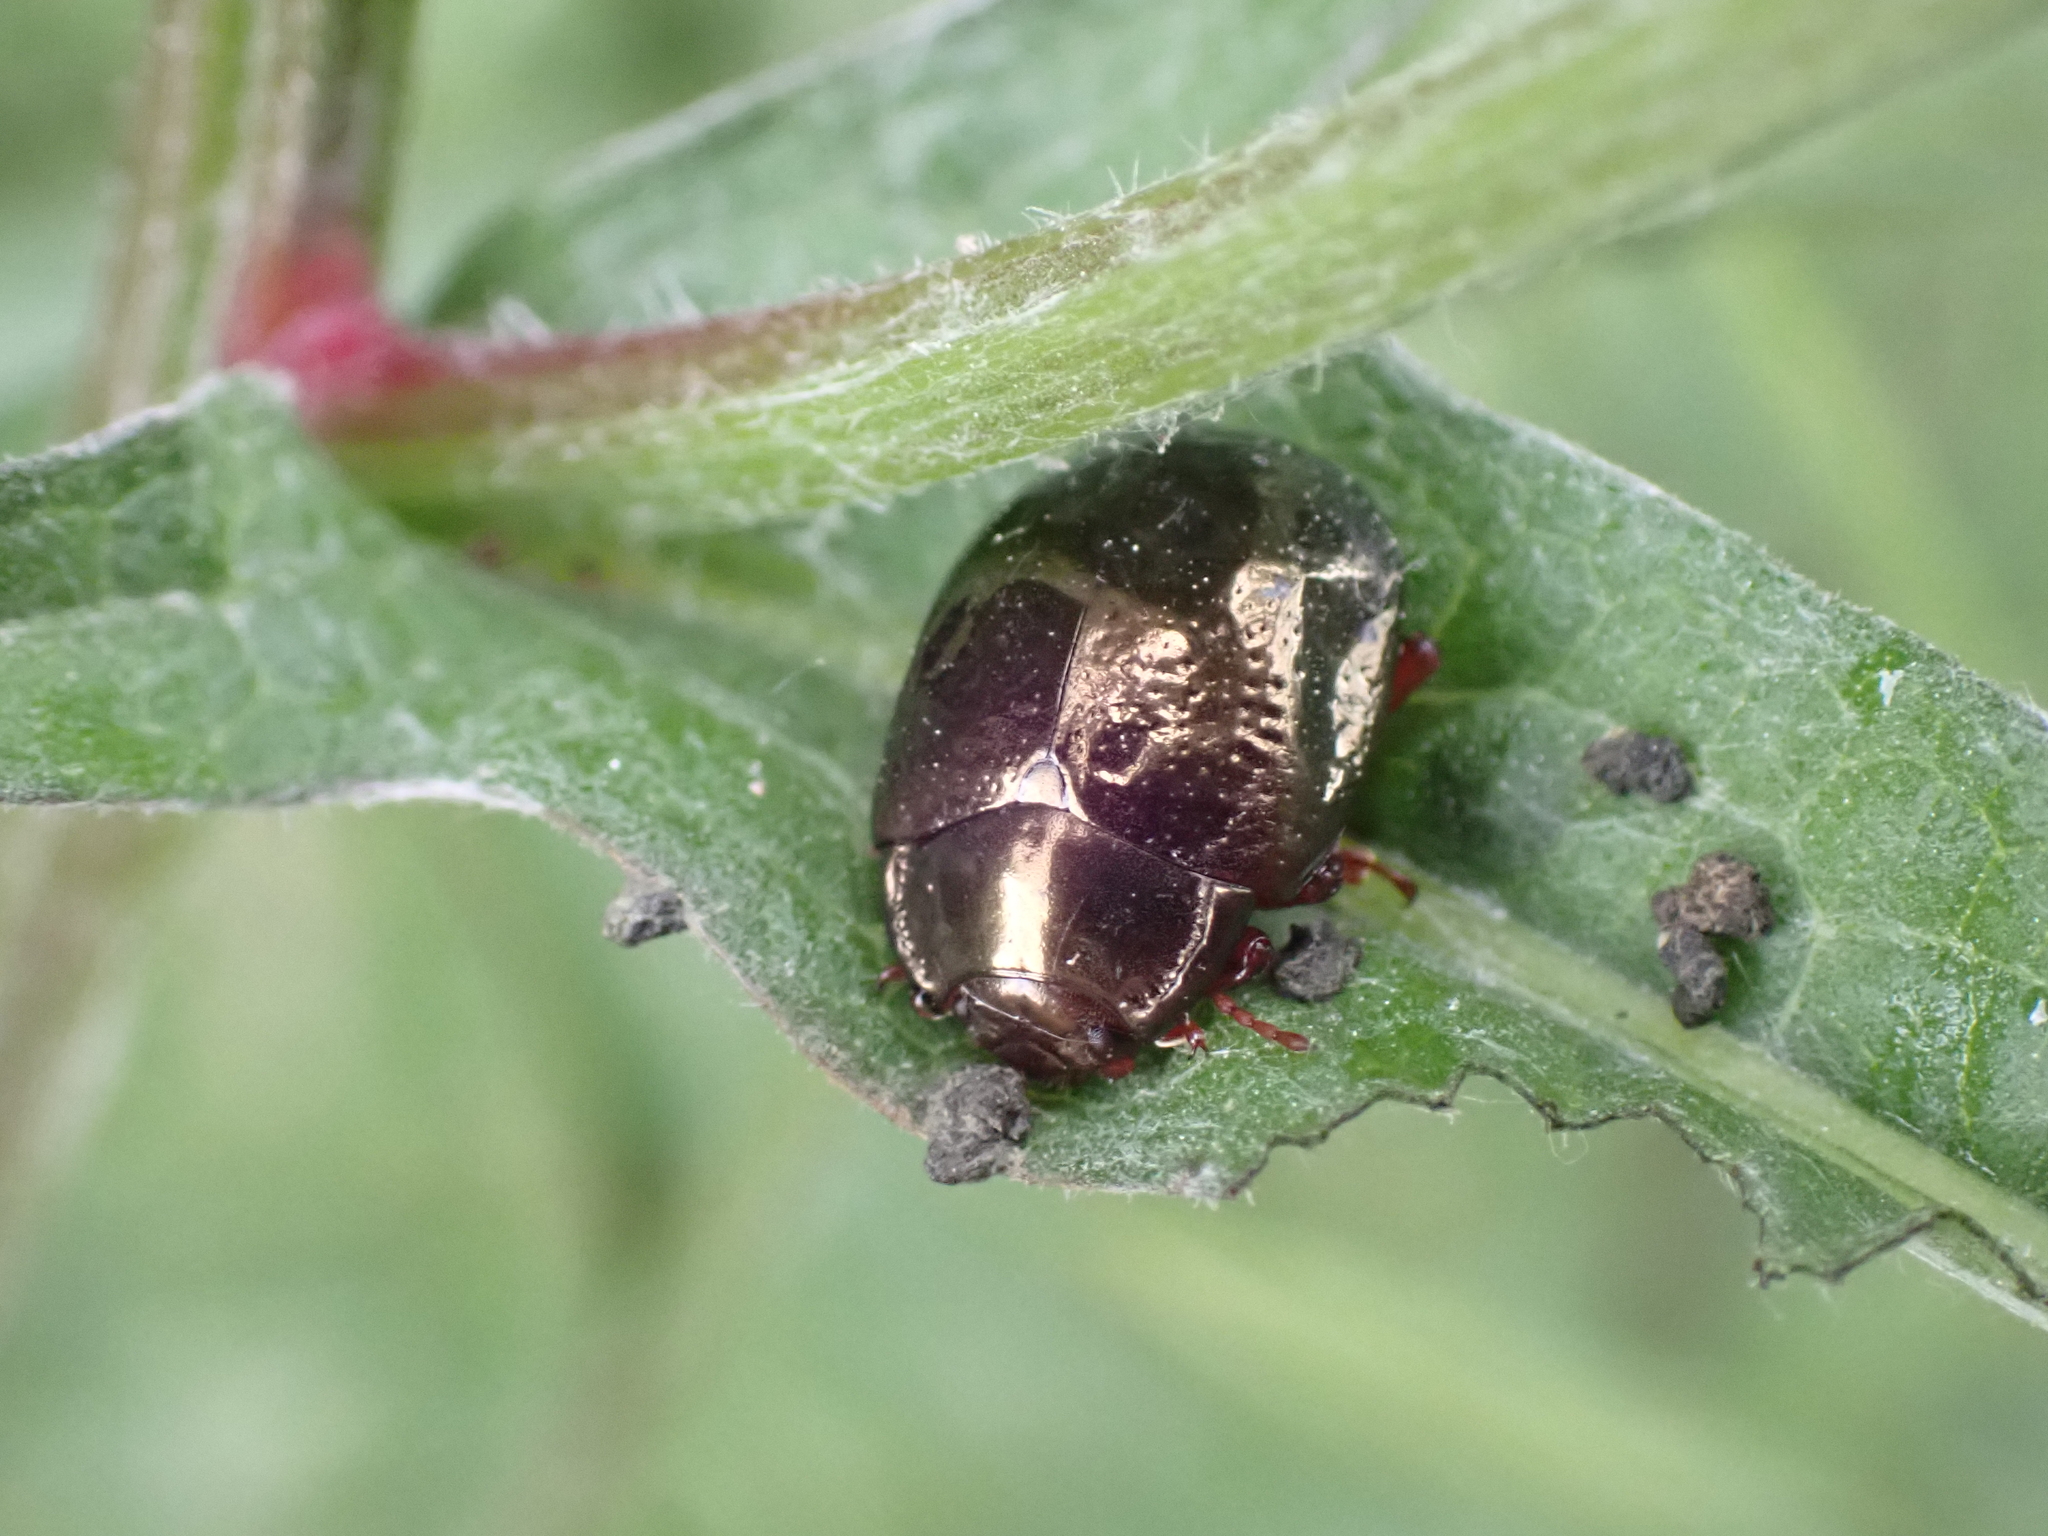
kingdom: Animalia
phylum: Arthropoda
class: Insecta
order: Coleoptera
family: Chrysomelidae
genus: Chrysolina
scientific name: Chrysolina bankii
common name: Leaf beetle
